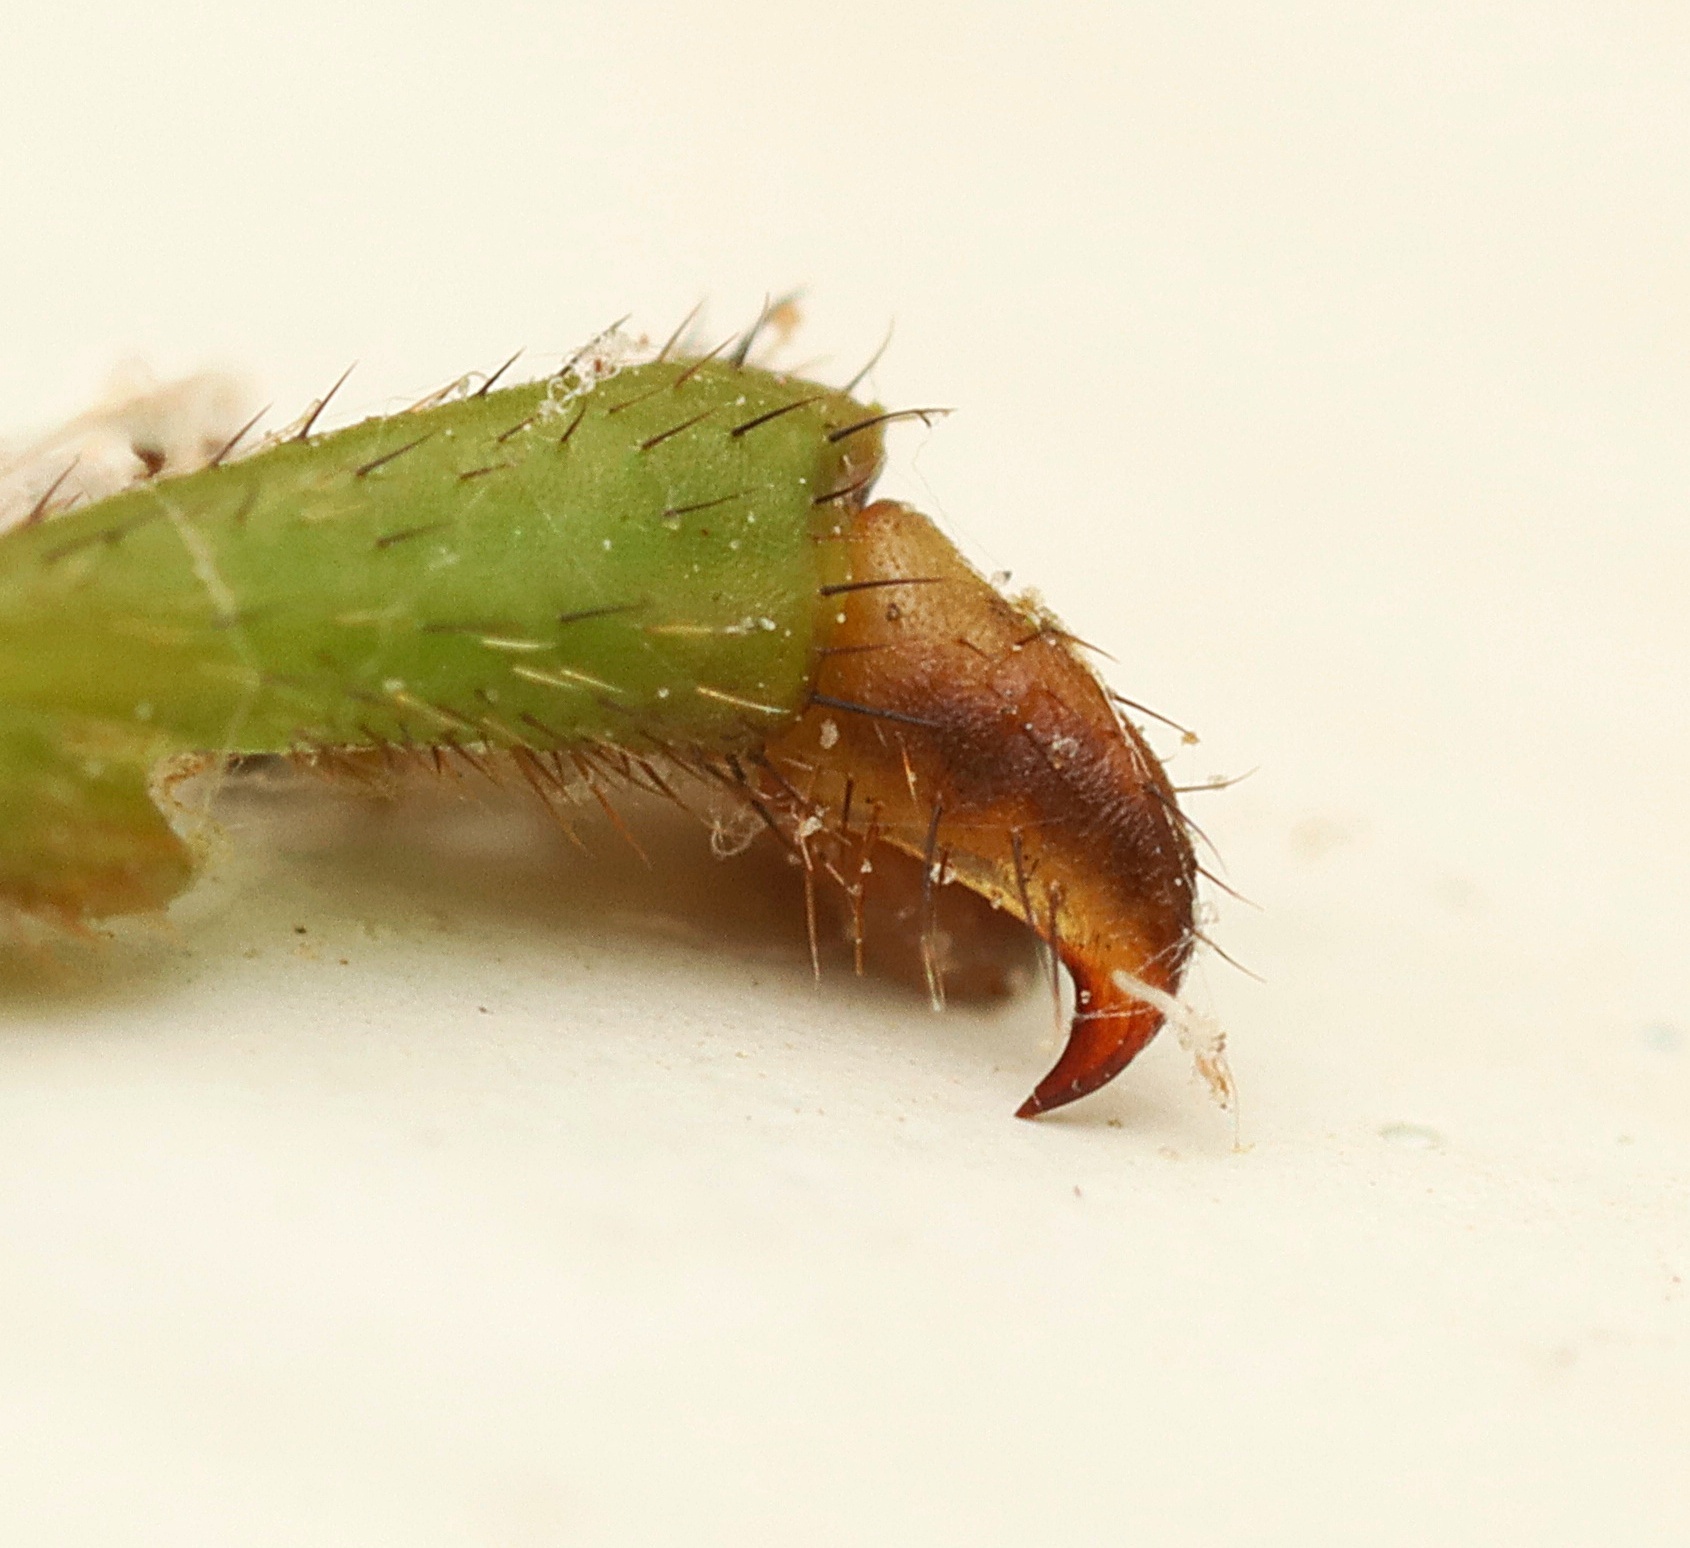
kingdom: Animalia
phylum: Arthropoda
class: Insecta
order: Phasmida
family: Phasmatidae
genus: Acanthoxyla
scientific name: Acanthoxyla prasina
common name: Black-spined stick insect
